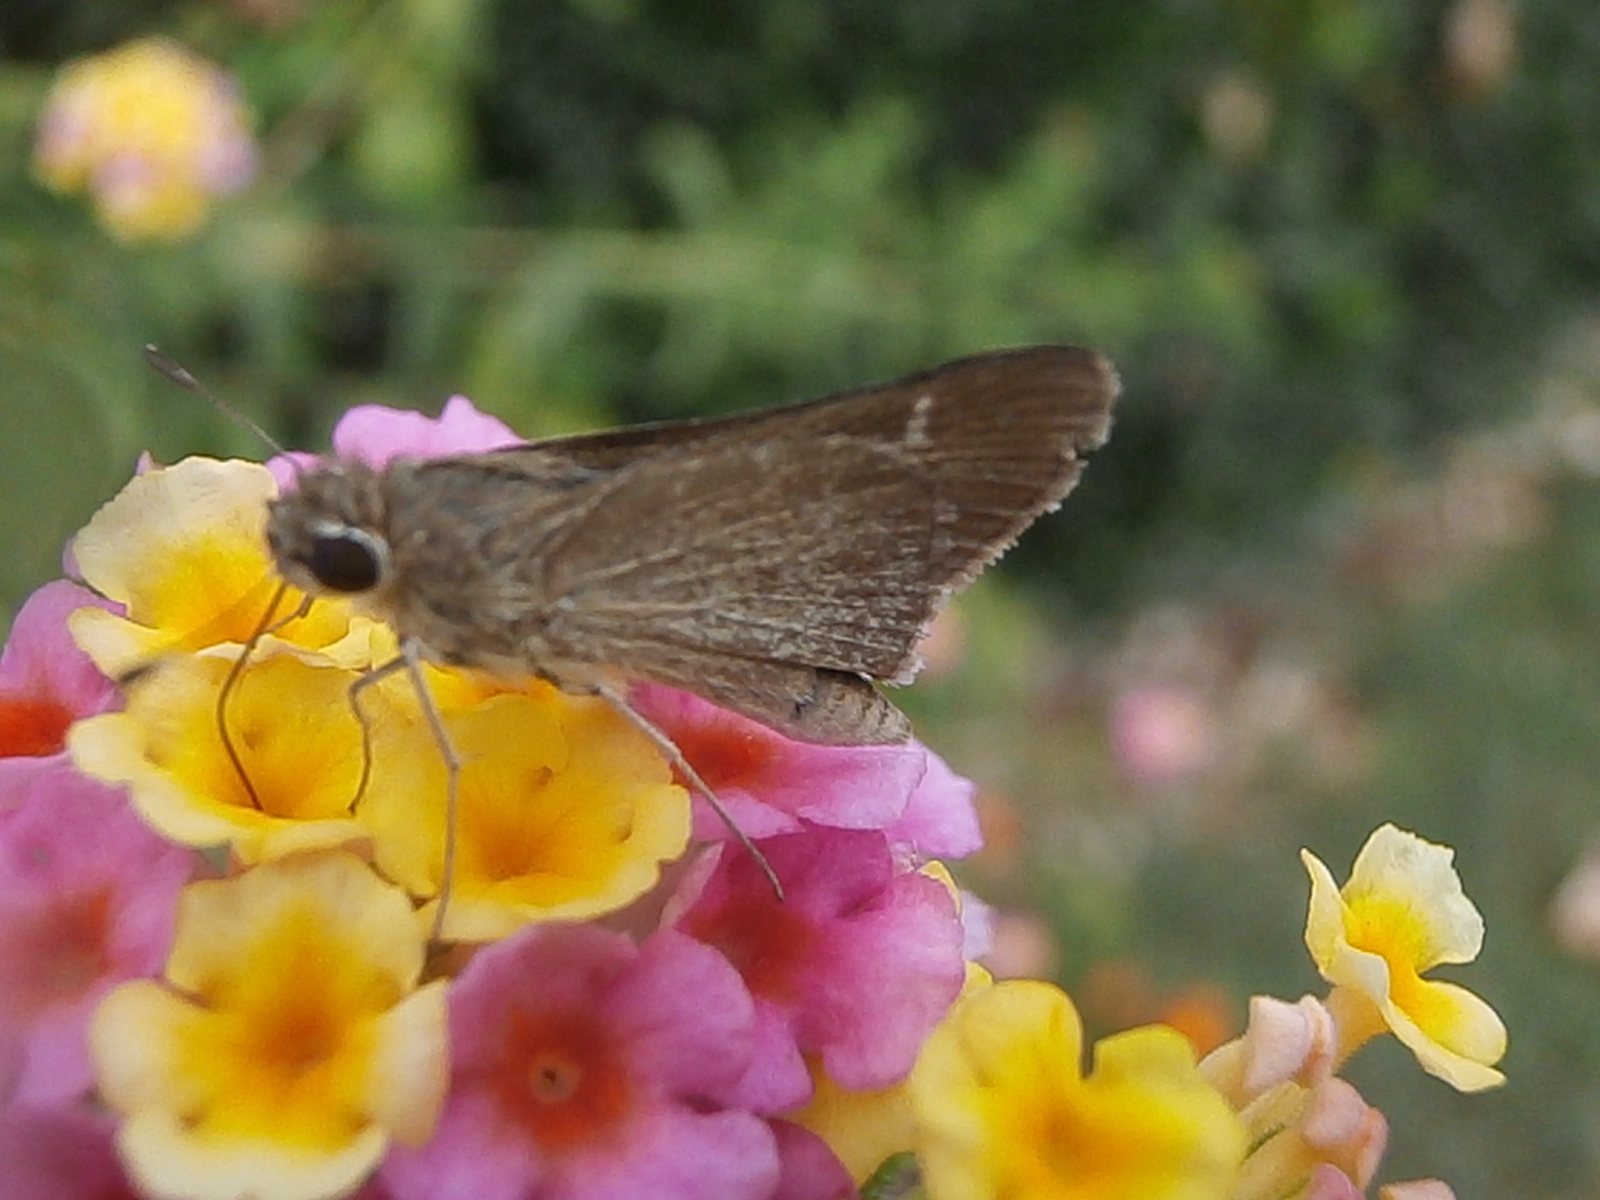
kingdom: Animalia
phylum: Arthropoda
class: Insecta
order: Lepidoptera
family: Hesperiidae
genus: Lerodea
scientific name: Lerodea eufala
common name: Eufala skipper
